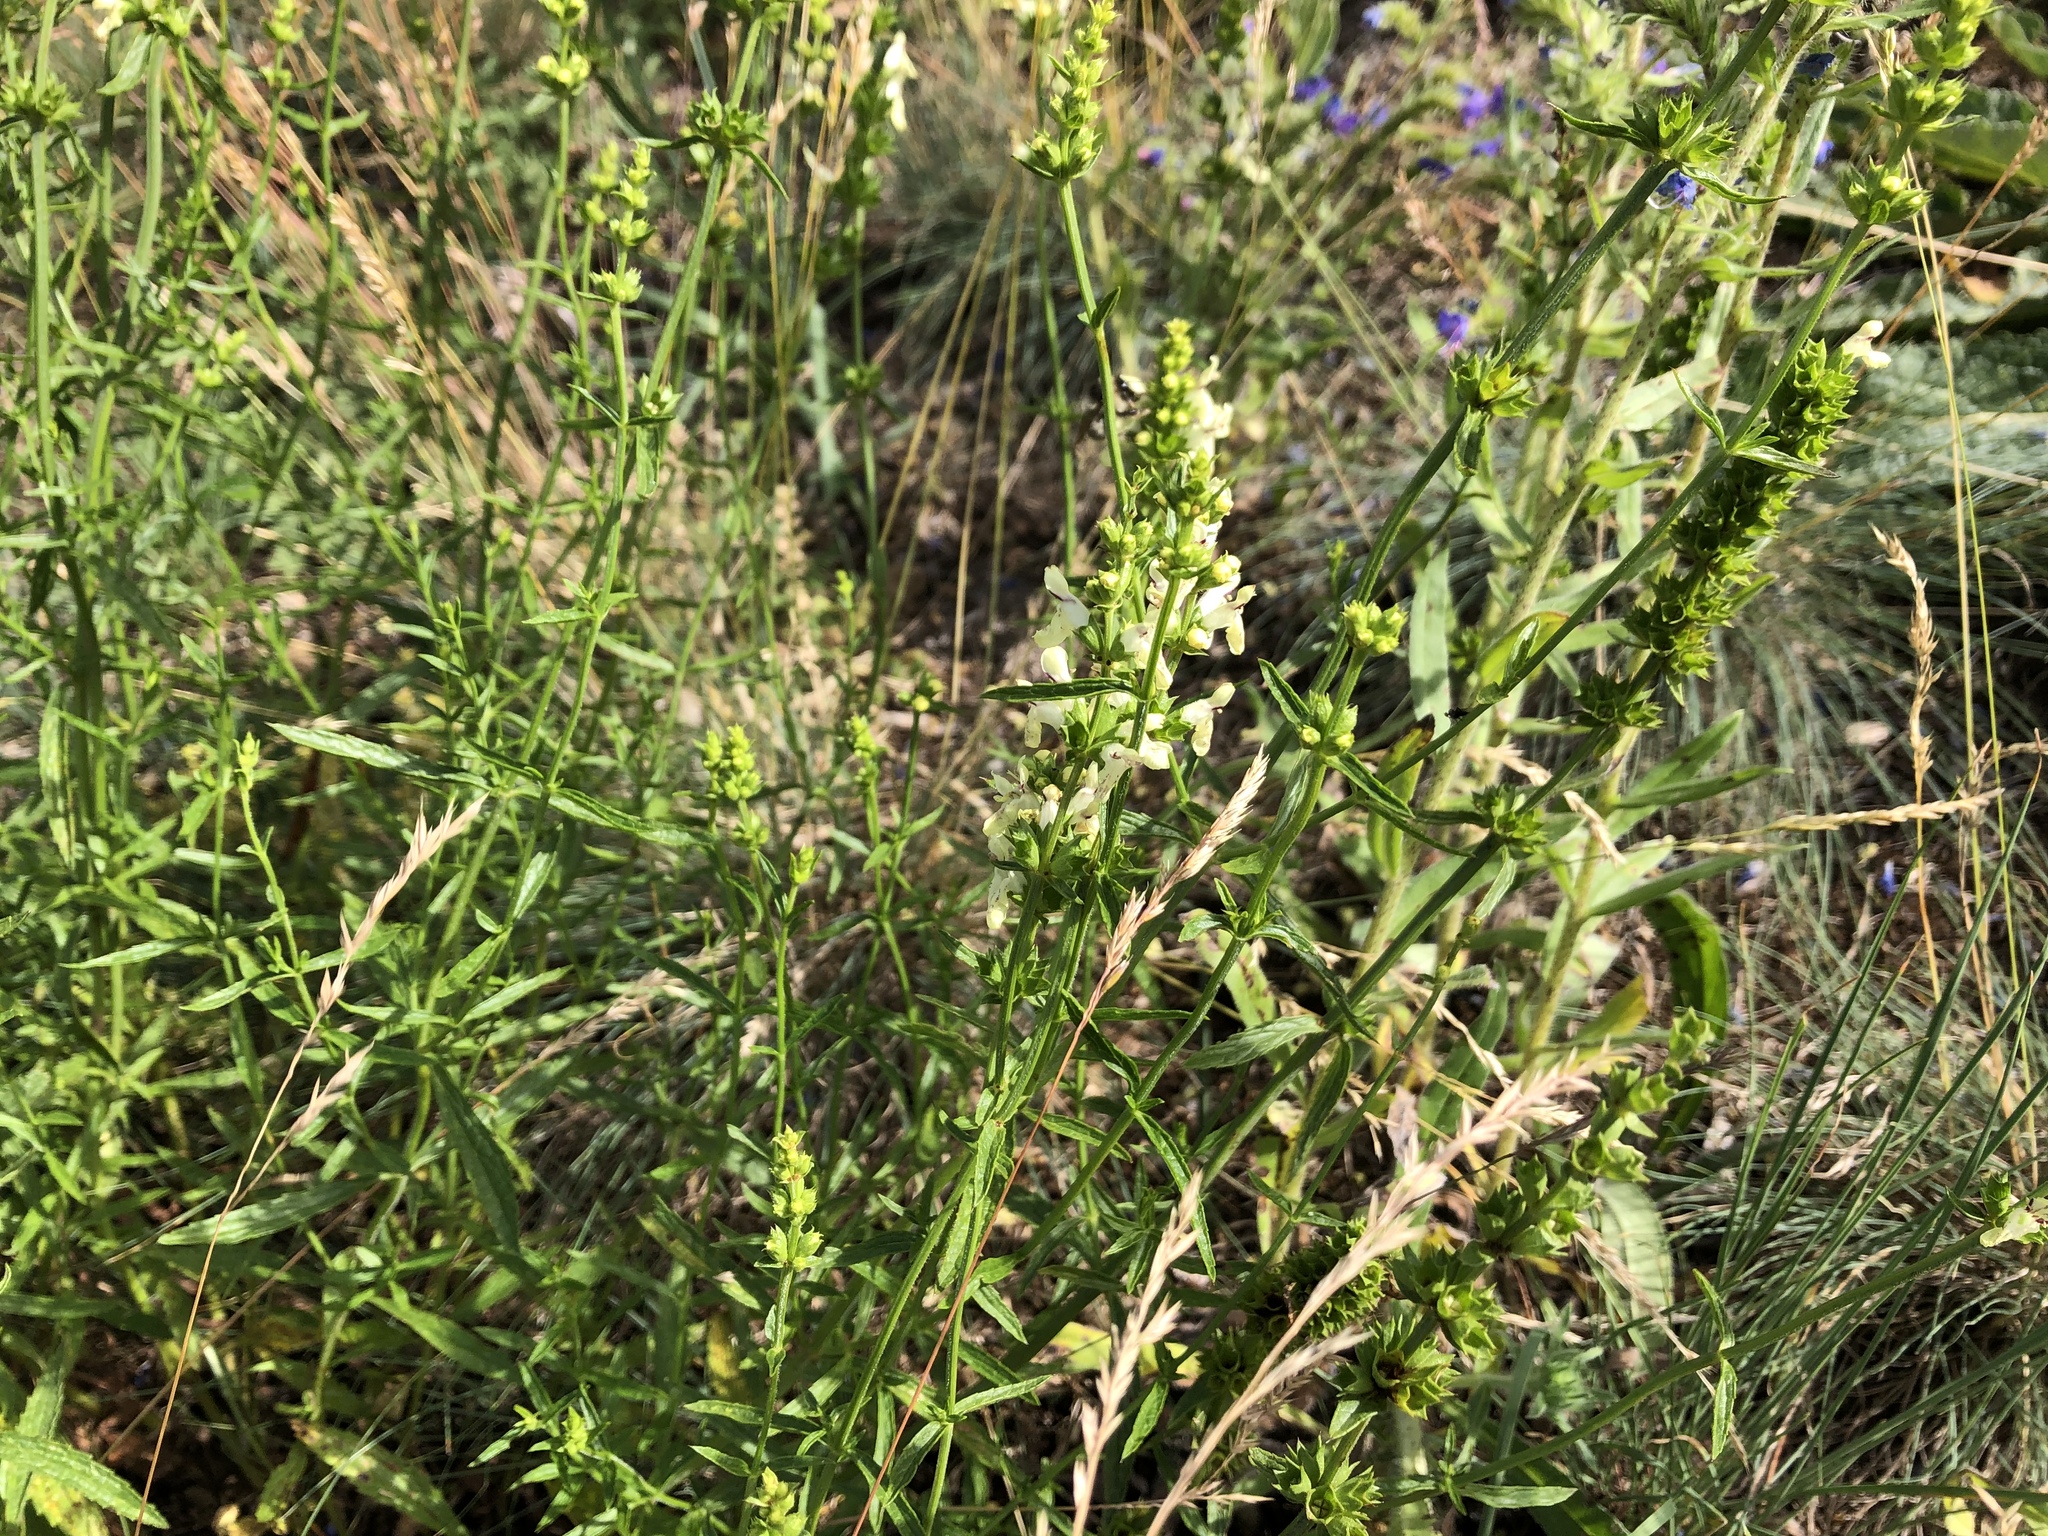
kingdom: Plantae
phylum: Tracheophyta
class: Magnoliopsida
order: Lamiales
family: Lamiaceae
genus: Stachys
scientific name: Stachys recta
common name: Perennial yellow-woundwort
